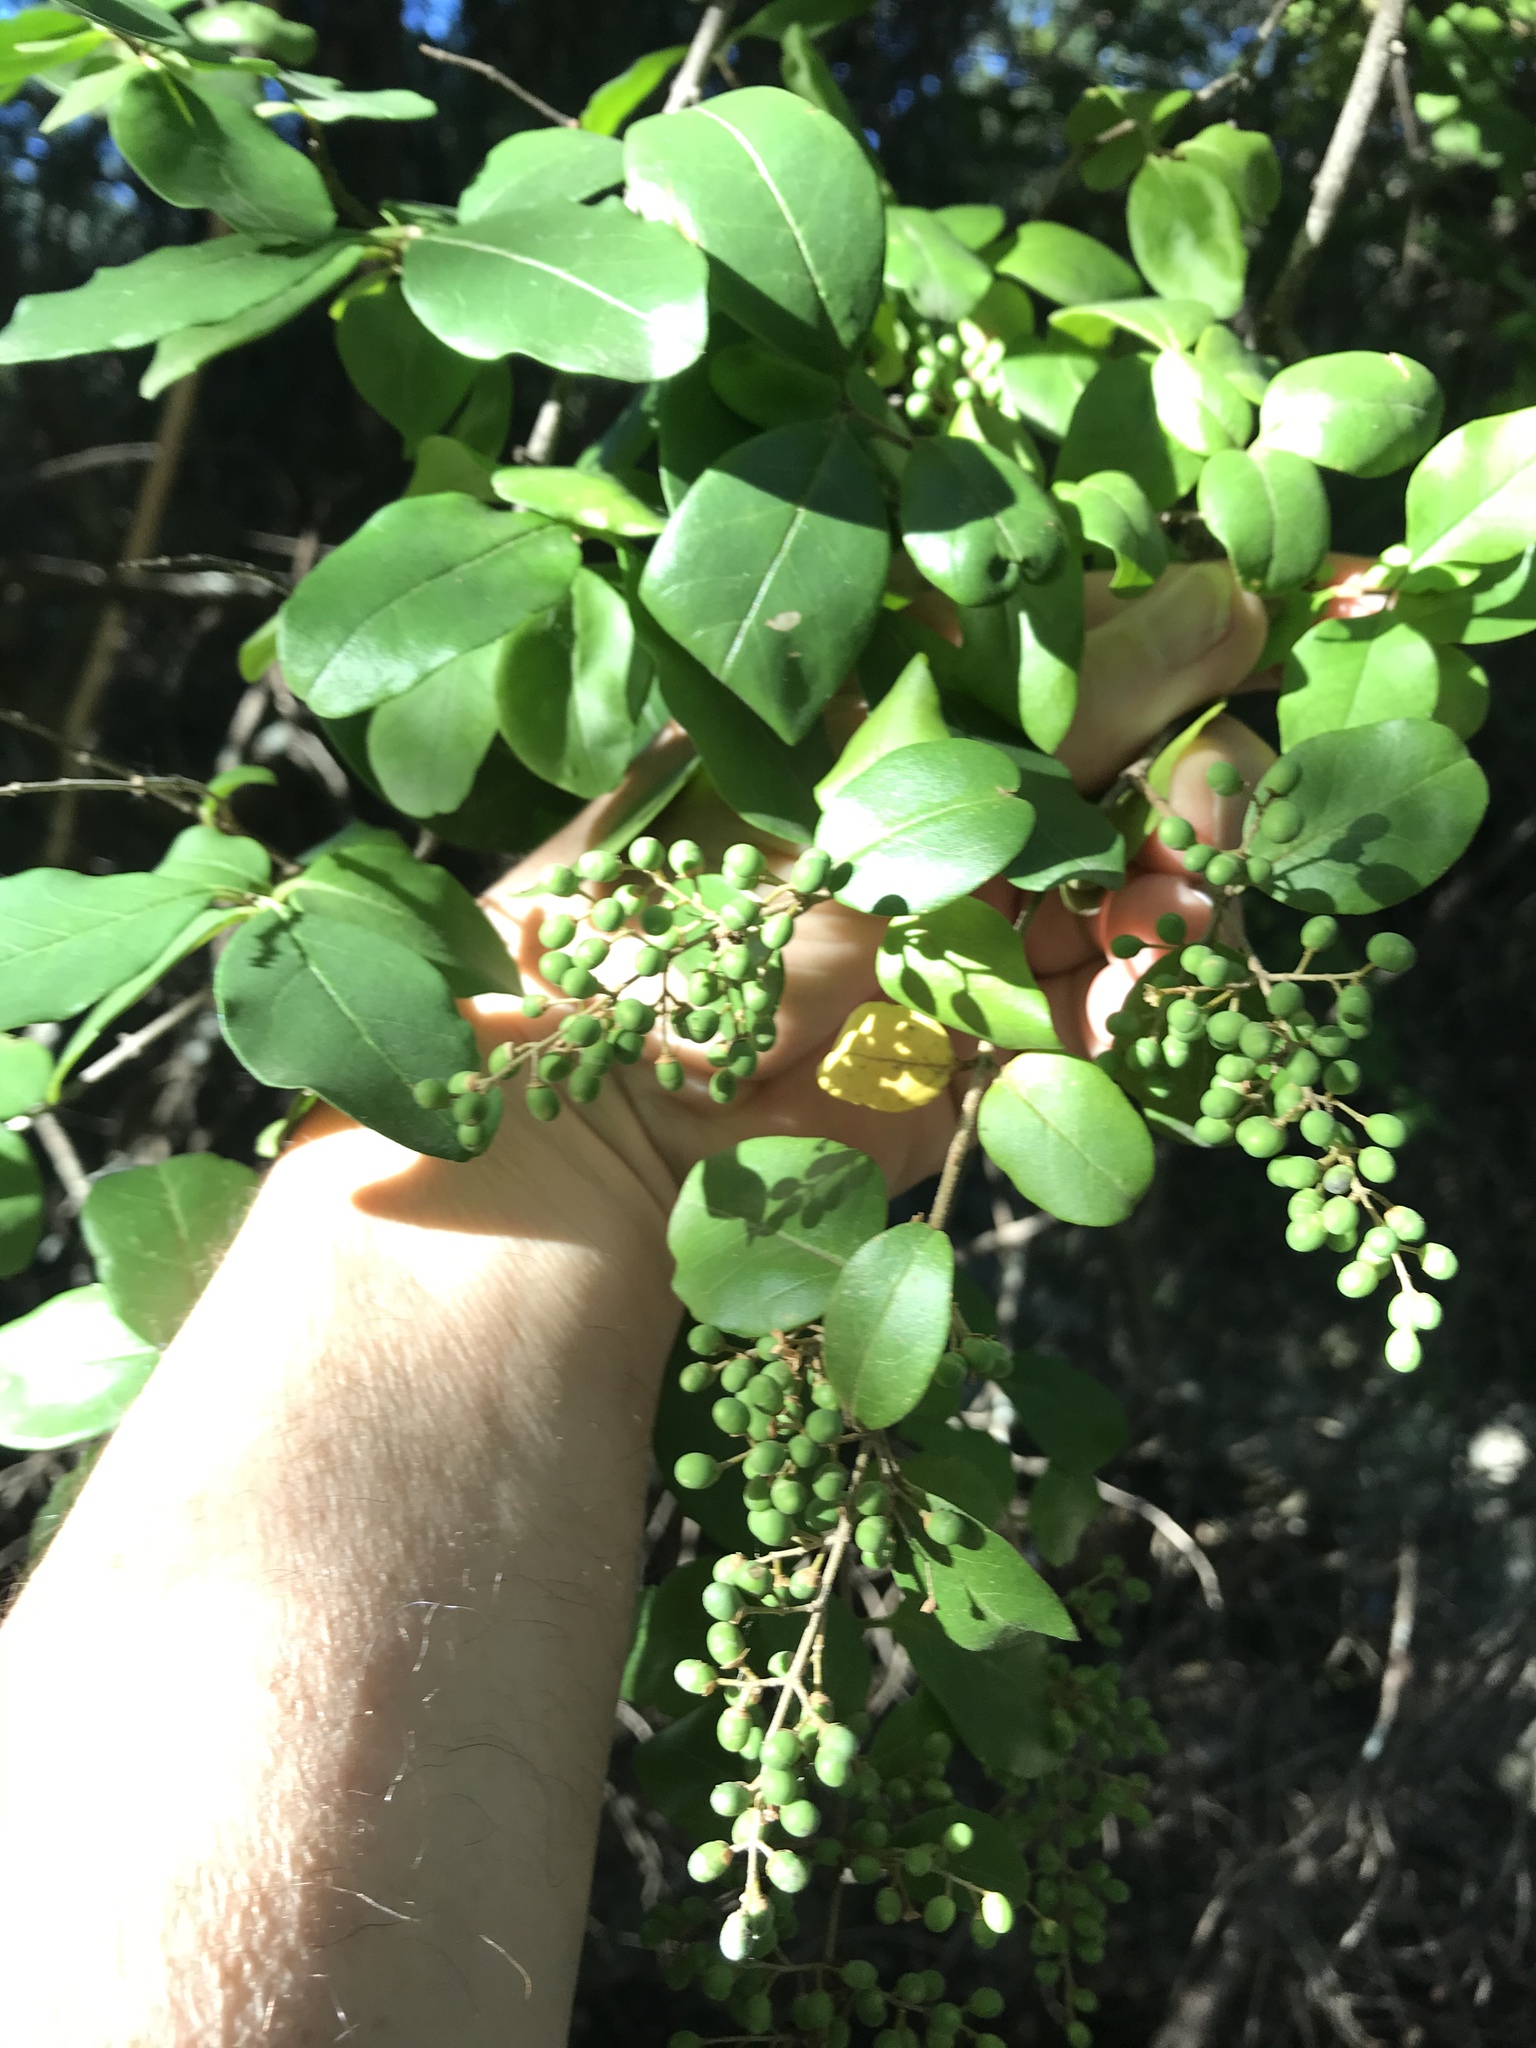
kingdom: Plantae
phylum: Tracheophyta
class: Magnoliopsida
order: Lamiales
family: Oleaceae
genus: Ligustrum
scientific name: Ligustrum sinense
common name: Chinese privet
